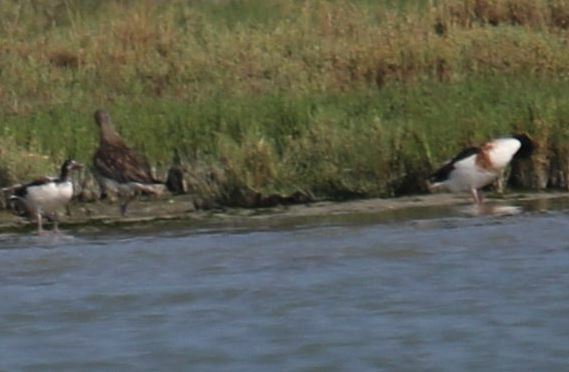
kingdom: Animalia
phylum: Chordata
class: Aves
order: Anseriformes
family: Anatidae
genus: Tadorna
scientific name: Tadorna tadorna
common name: Common shelduck
